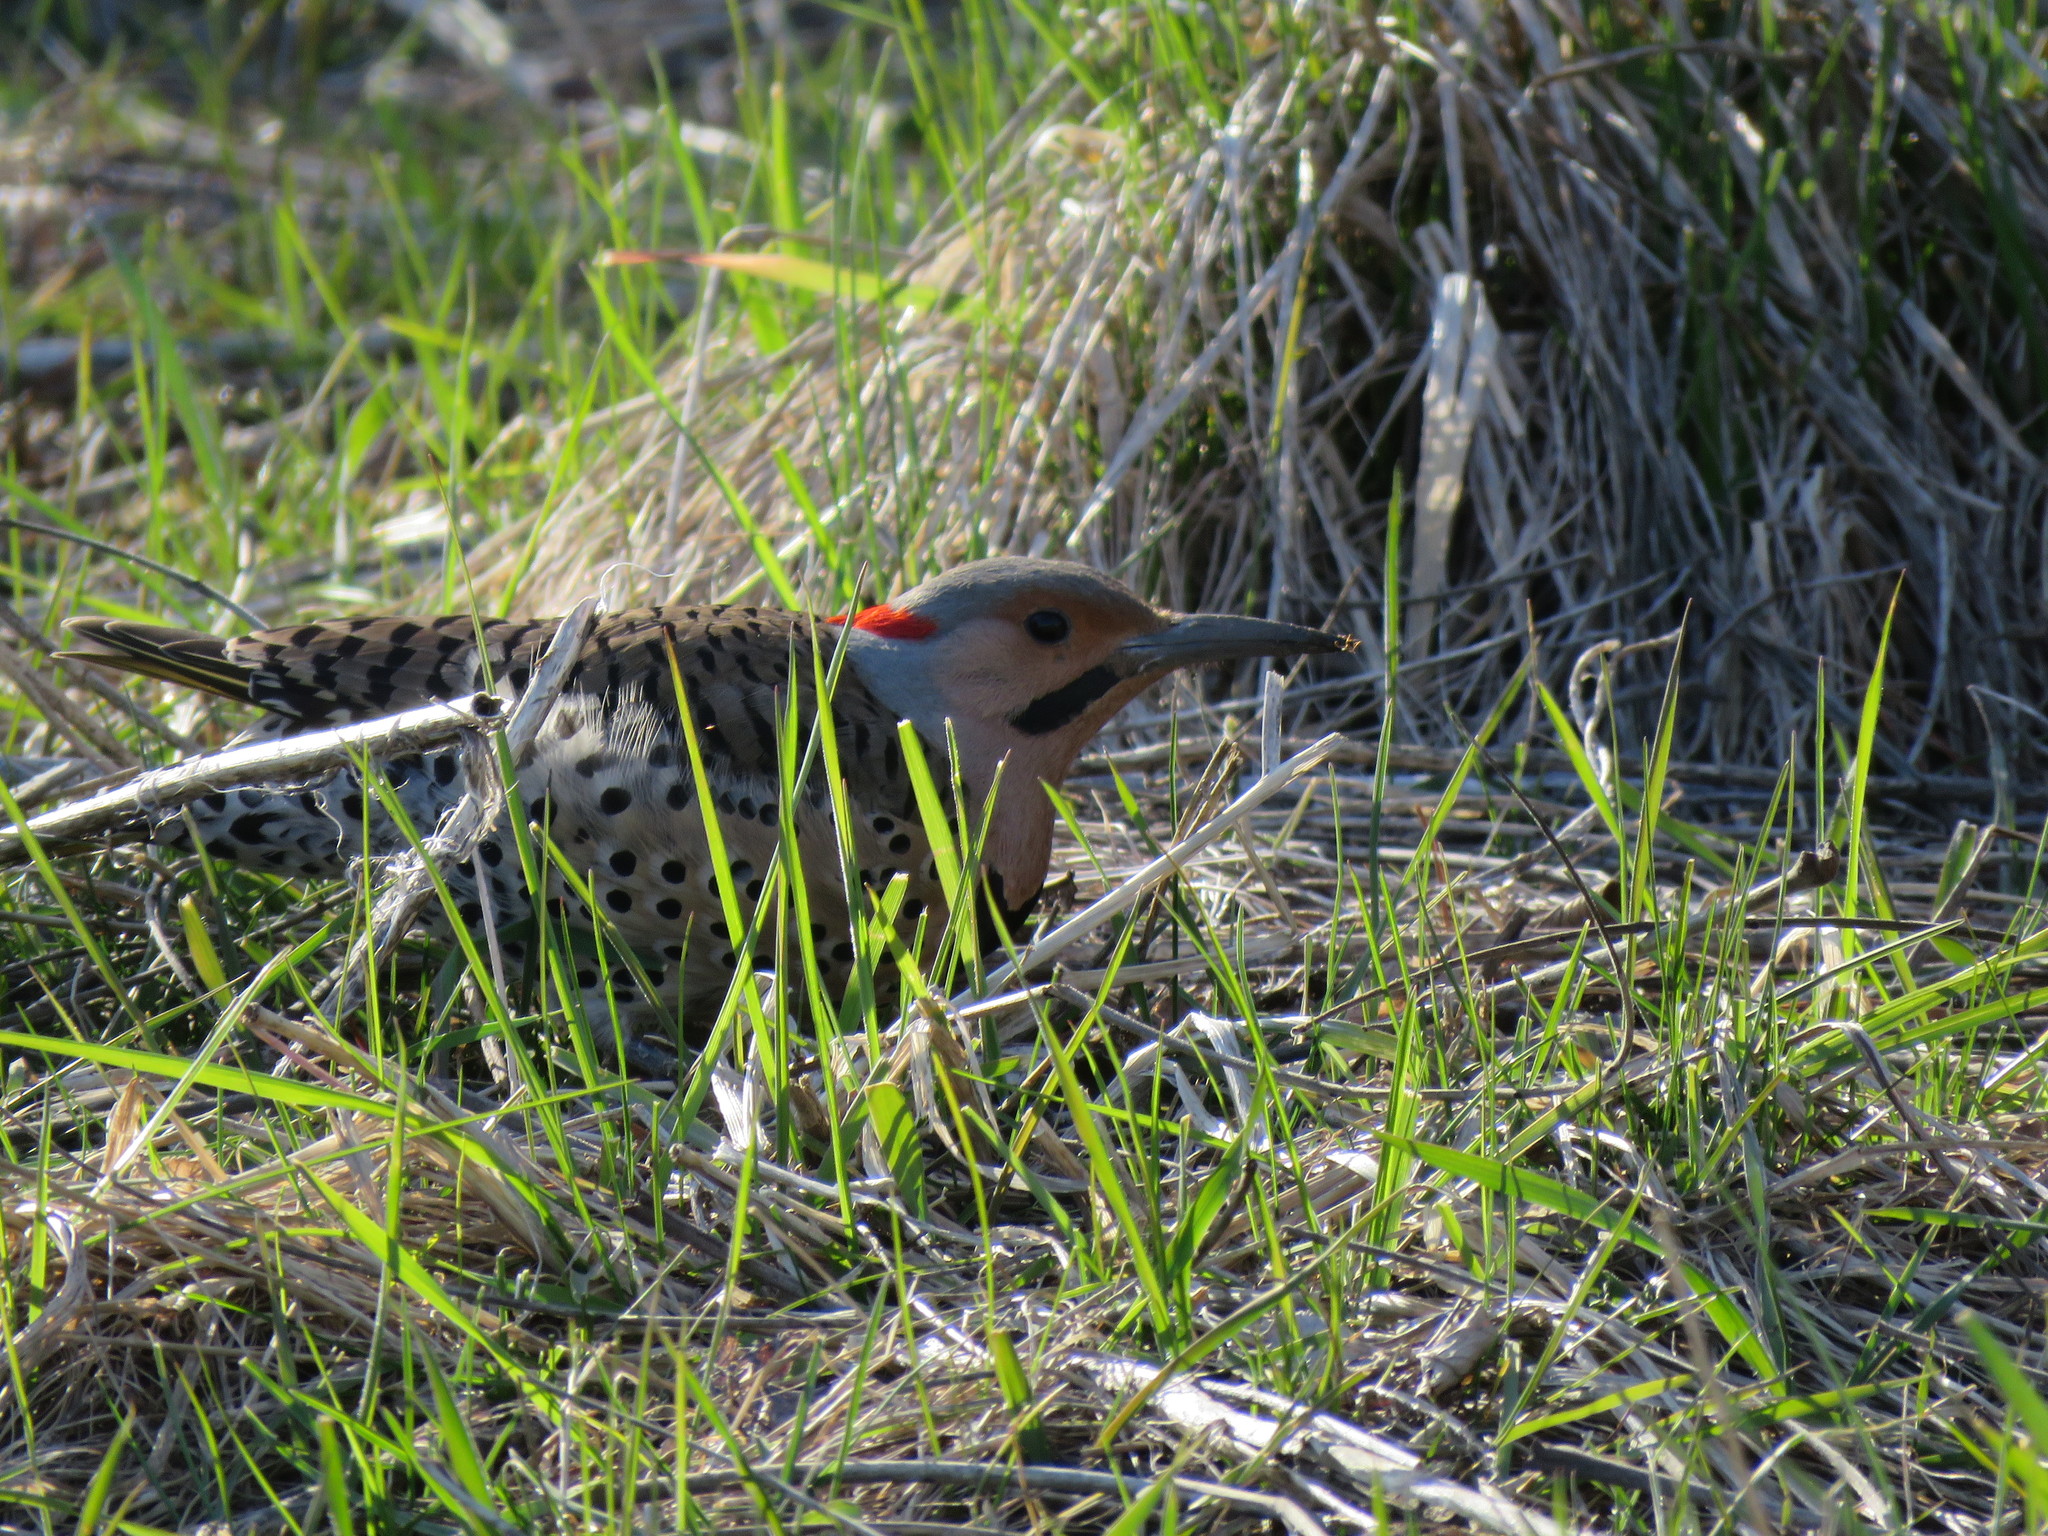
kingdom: Animalia
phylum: Chordata
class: Aves
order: Piciformes
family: Picidae
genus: Colaptes
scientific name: Colaptes auratus
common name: Northern flicker
